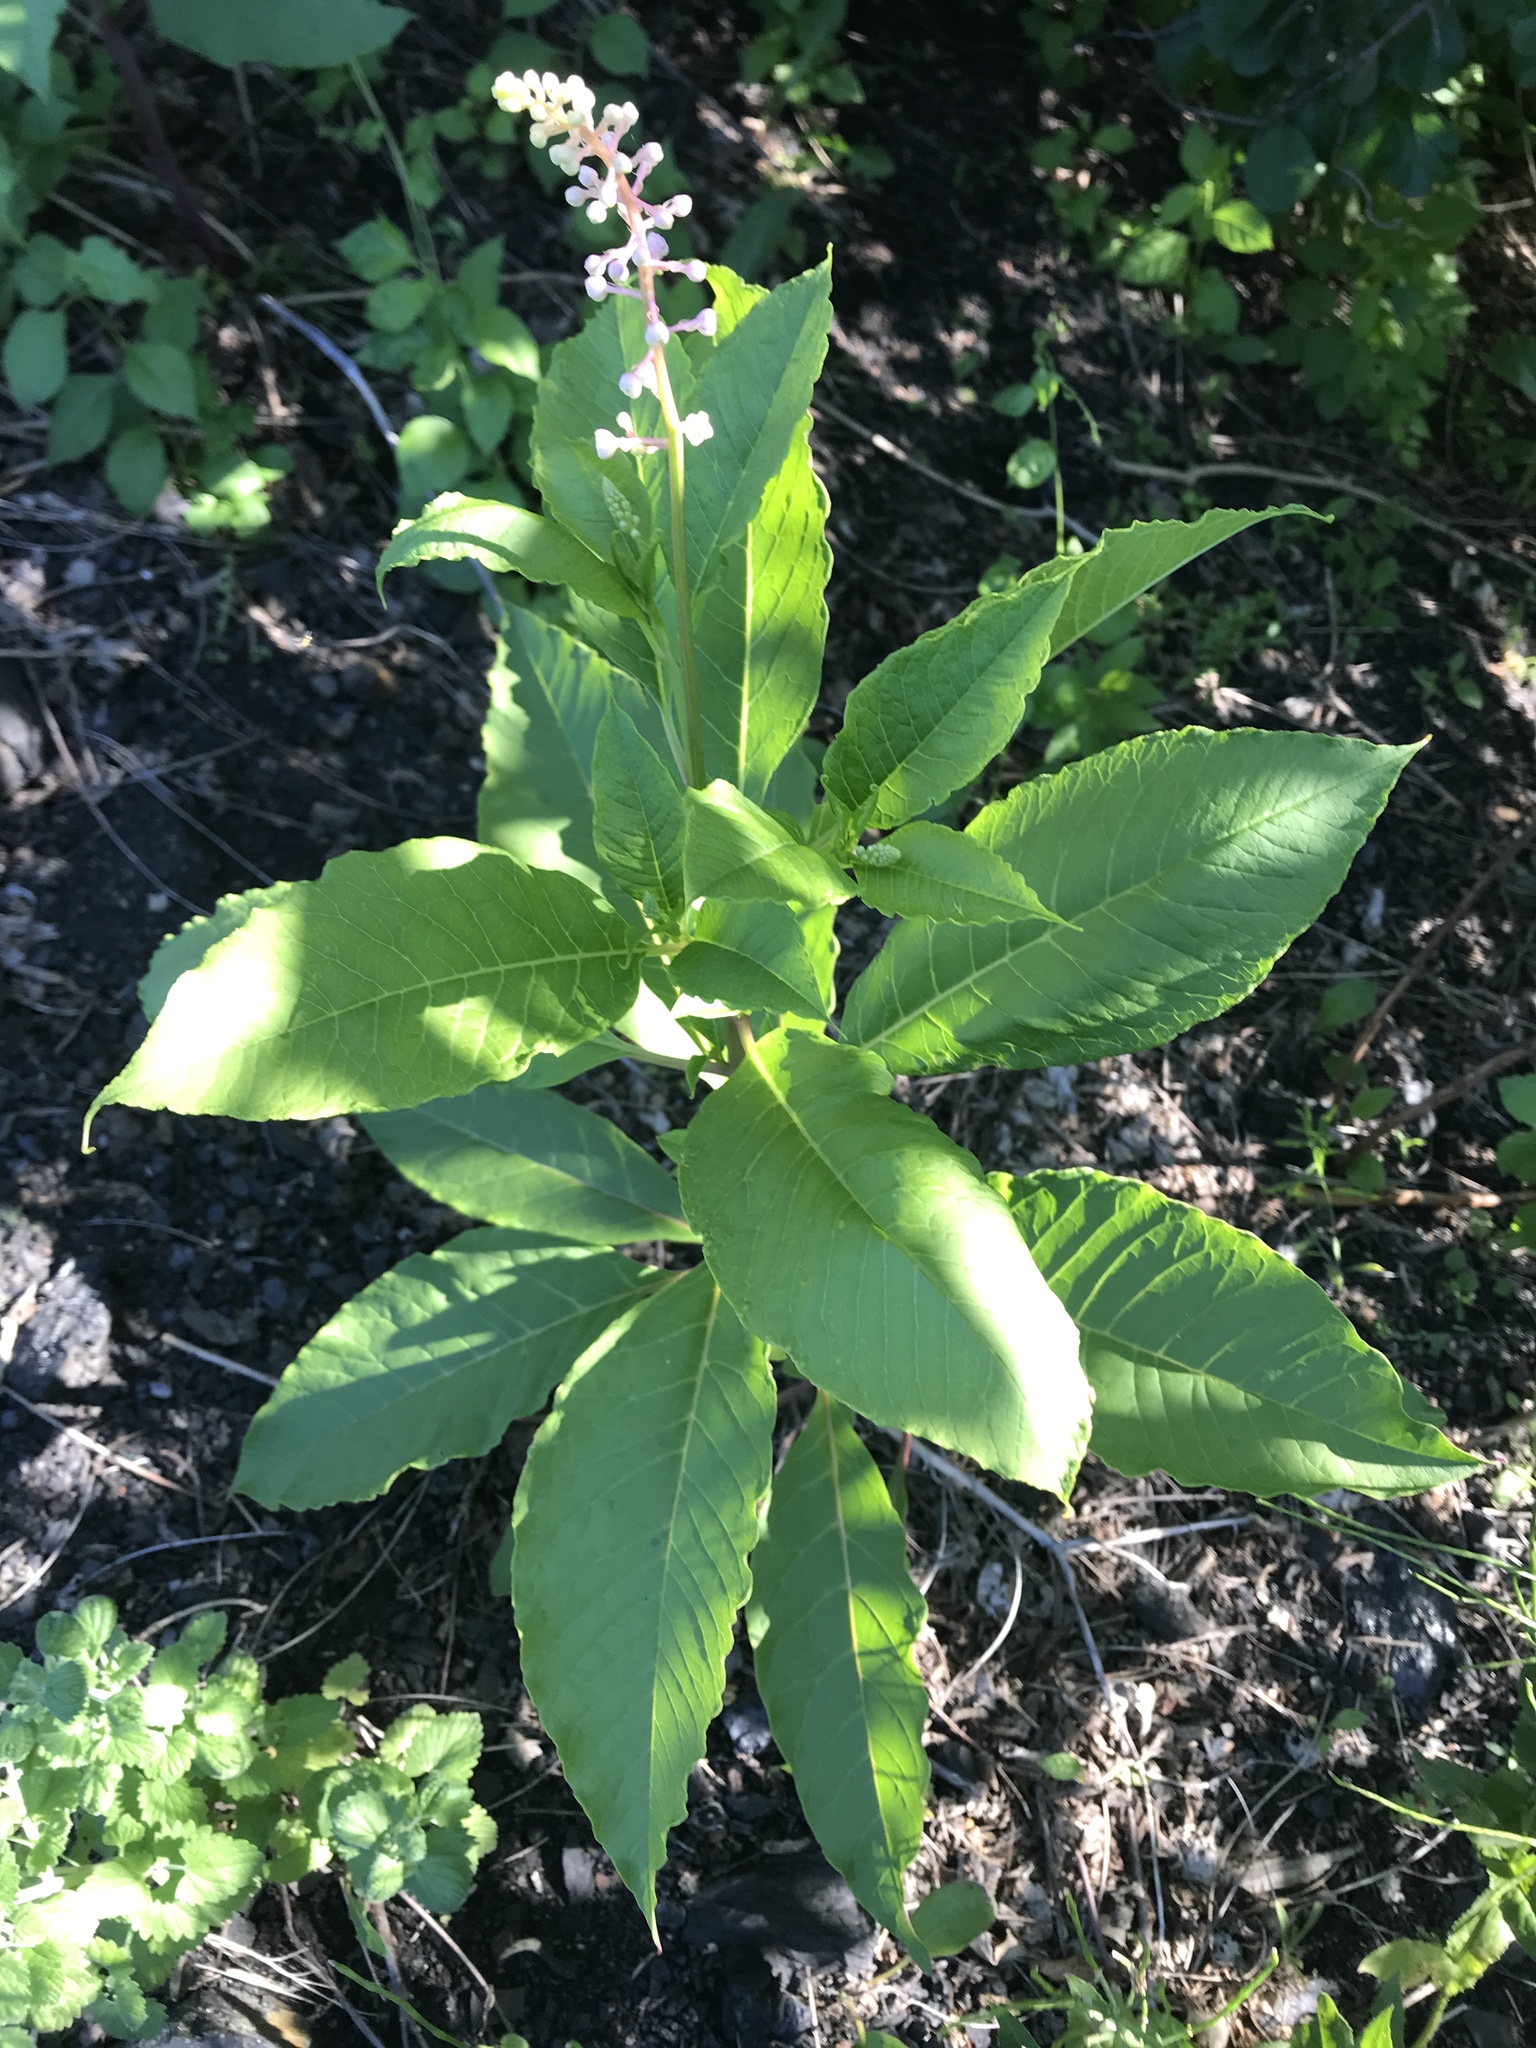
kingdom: Plantae
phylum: Tracheophyta
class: Magnoliopsida
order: Caryophyllales
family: Phytolaccaceae
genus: Phytolacca
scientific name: Phytolacca americana
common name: American pokeweed
